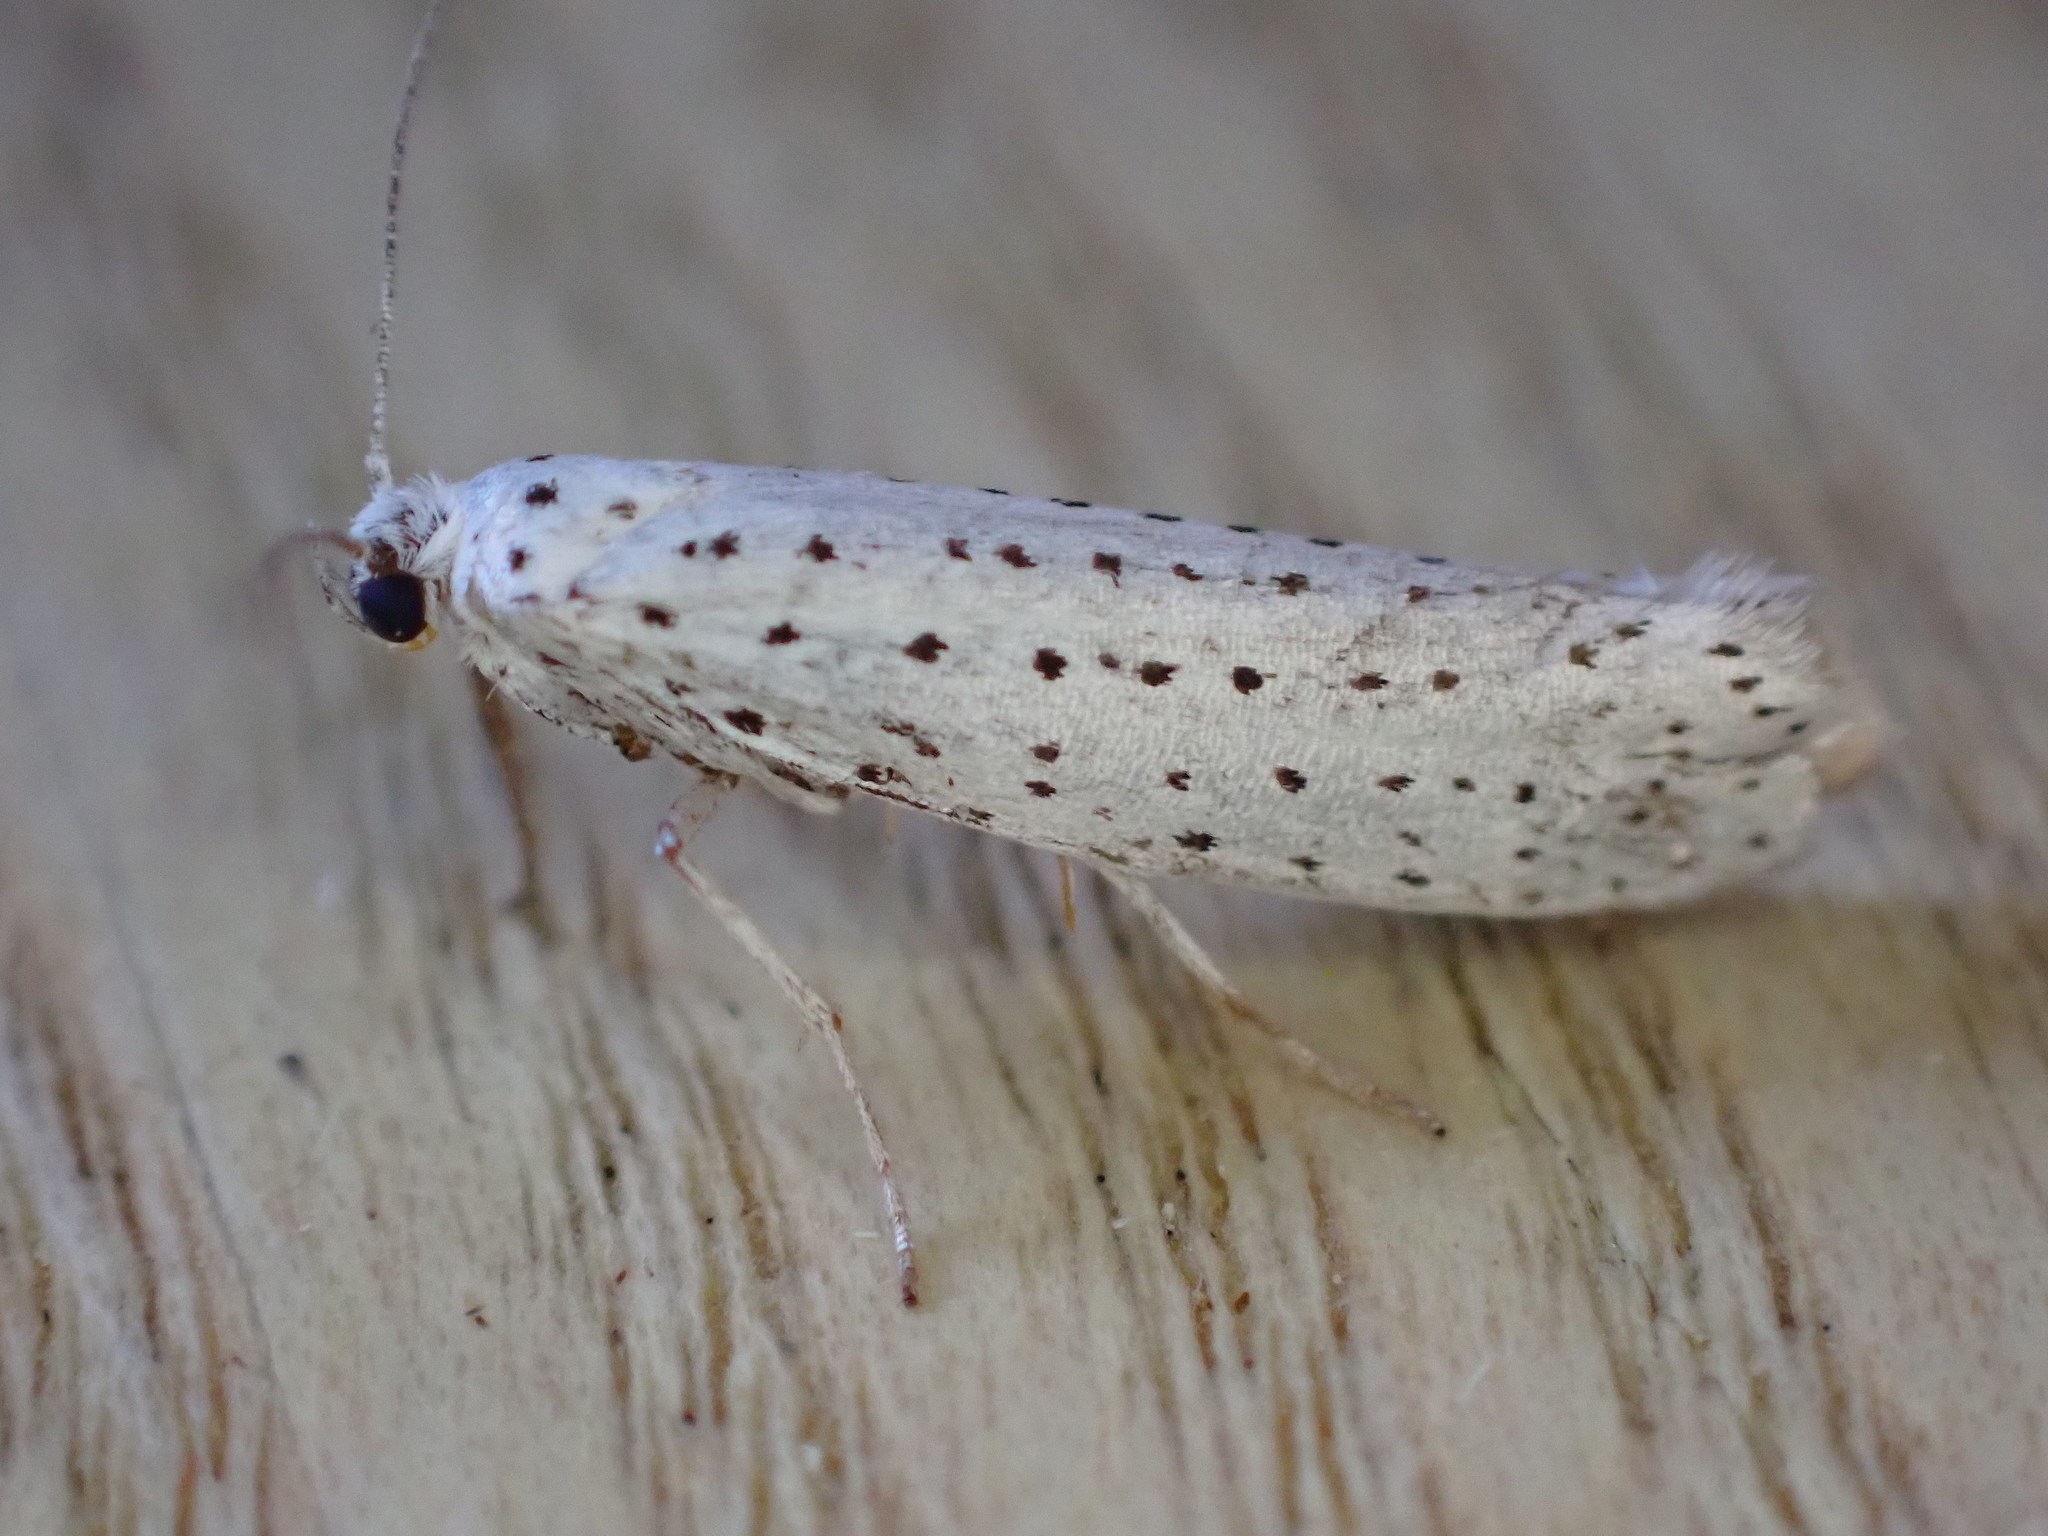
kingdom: Animalia
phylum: Arthropoda
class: Insecta
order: Lepidoptera
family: Yponomeutidae
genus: Yponomeuta
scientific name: Yponomeuta evonymella
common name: Bird-cherry ermine
